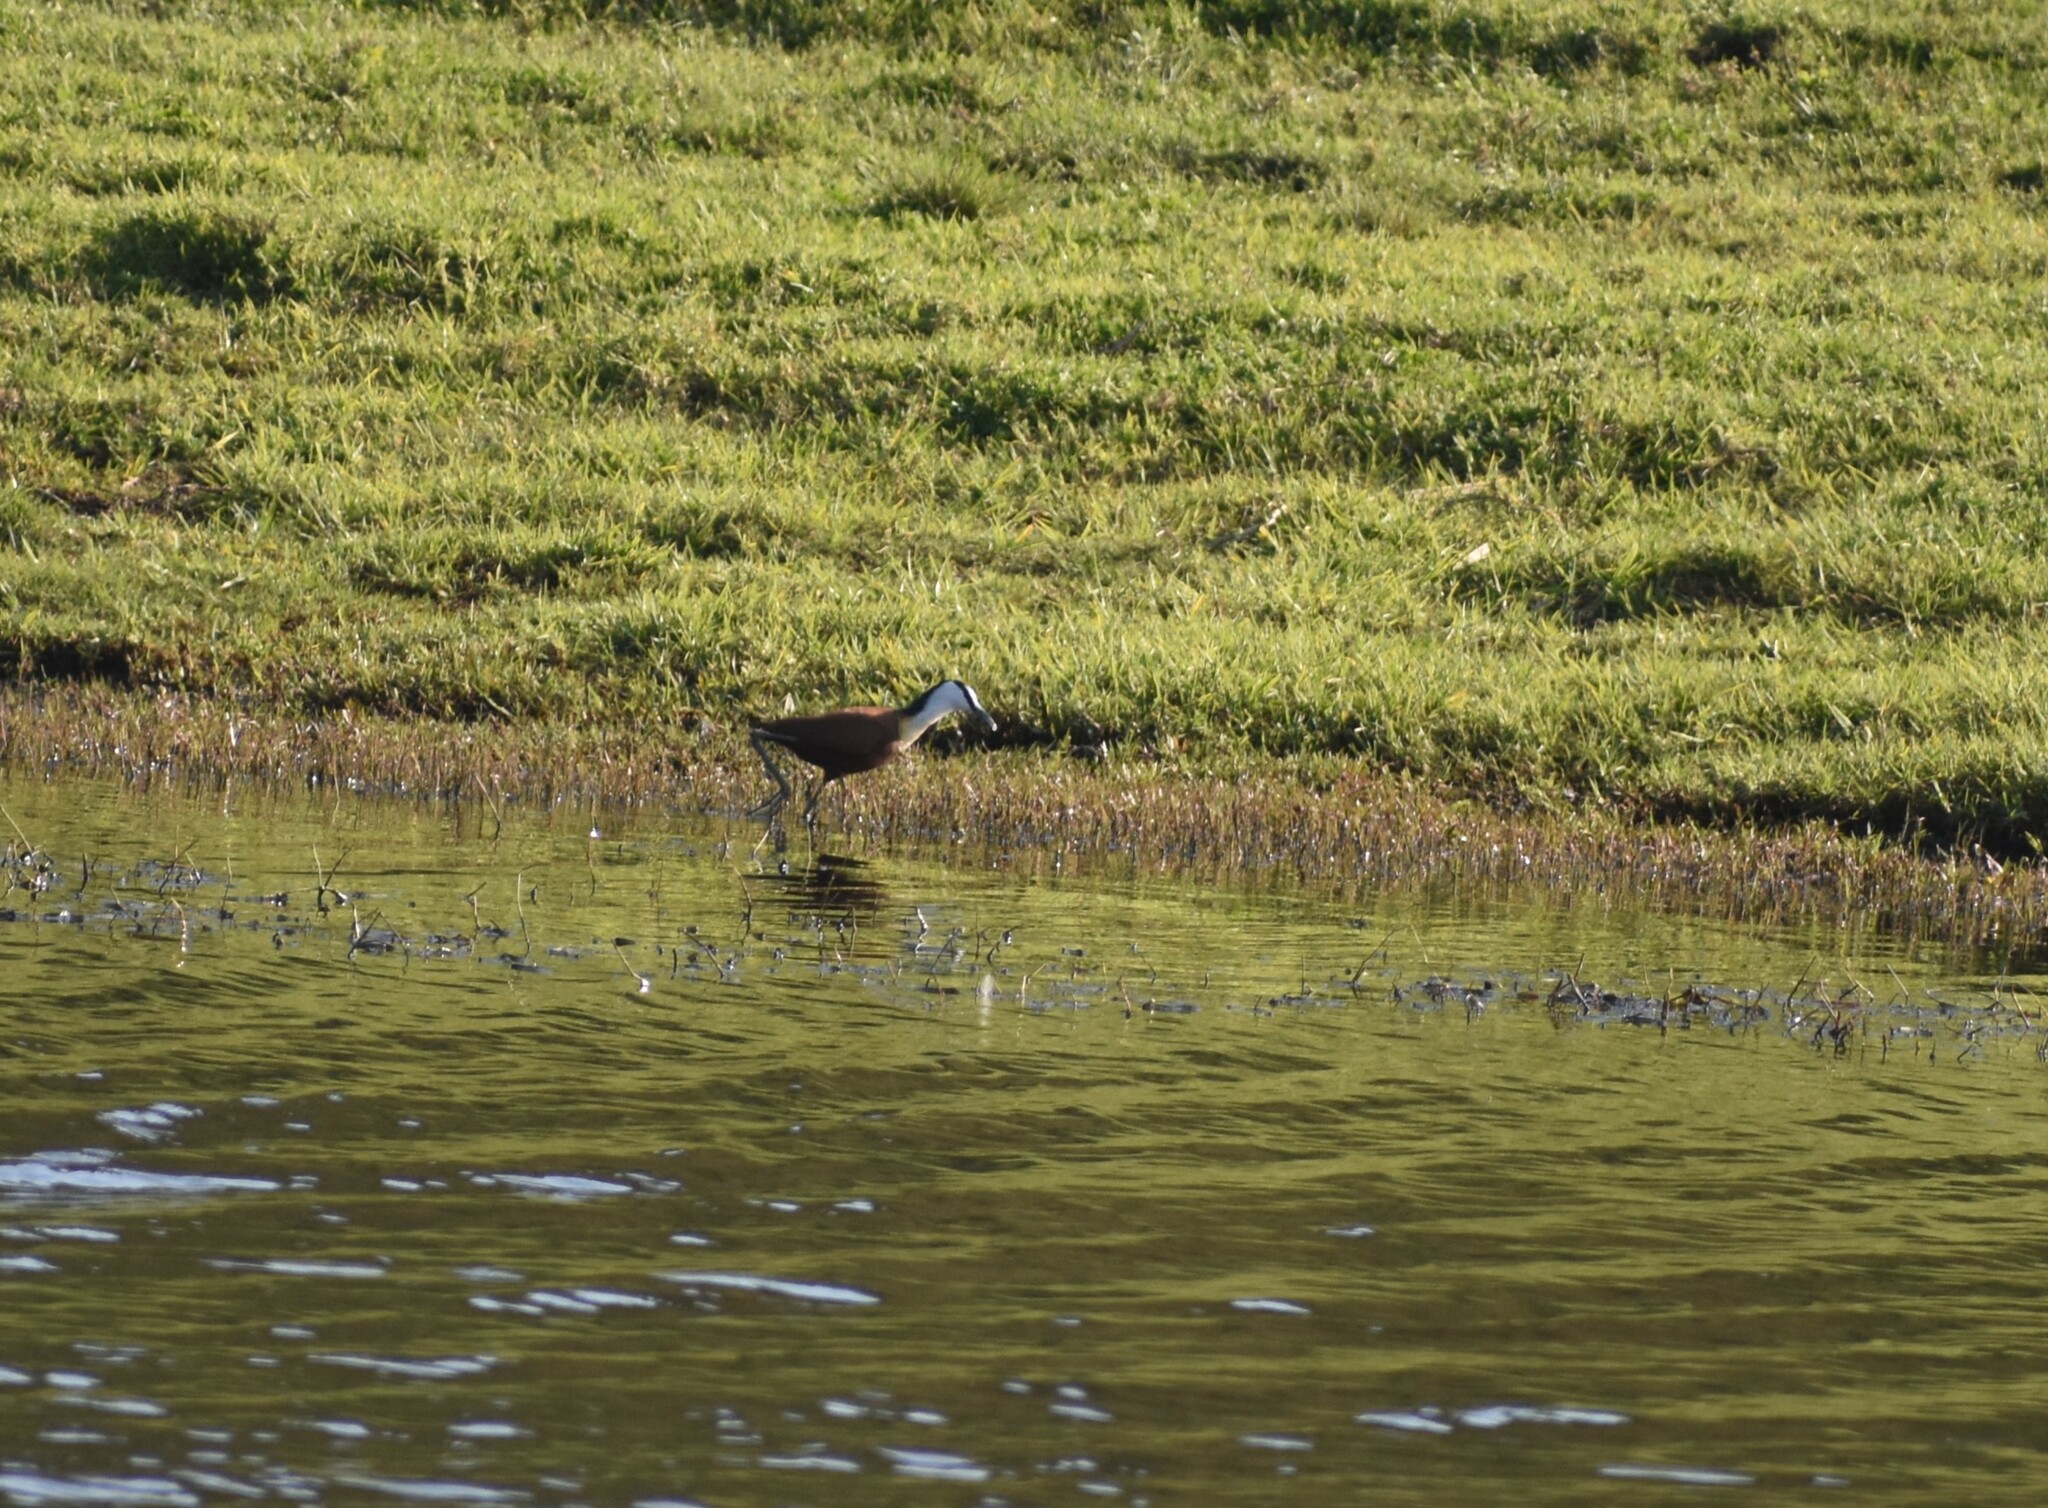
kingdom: Animalia
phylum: Chordata
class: Aves
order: Charadriiformes
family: Jacanidae
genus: Actophilornis
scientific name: Actophilornis africanus
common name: African jacana
